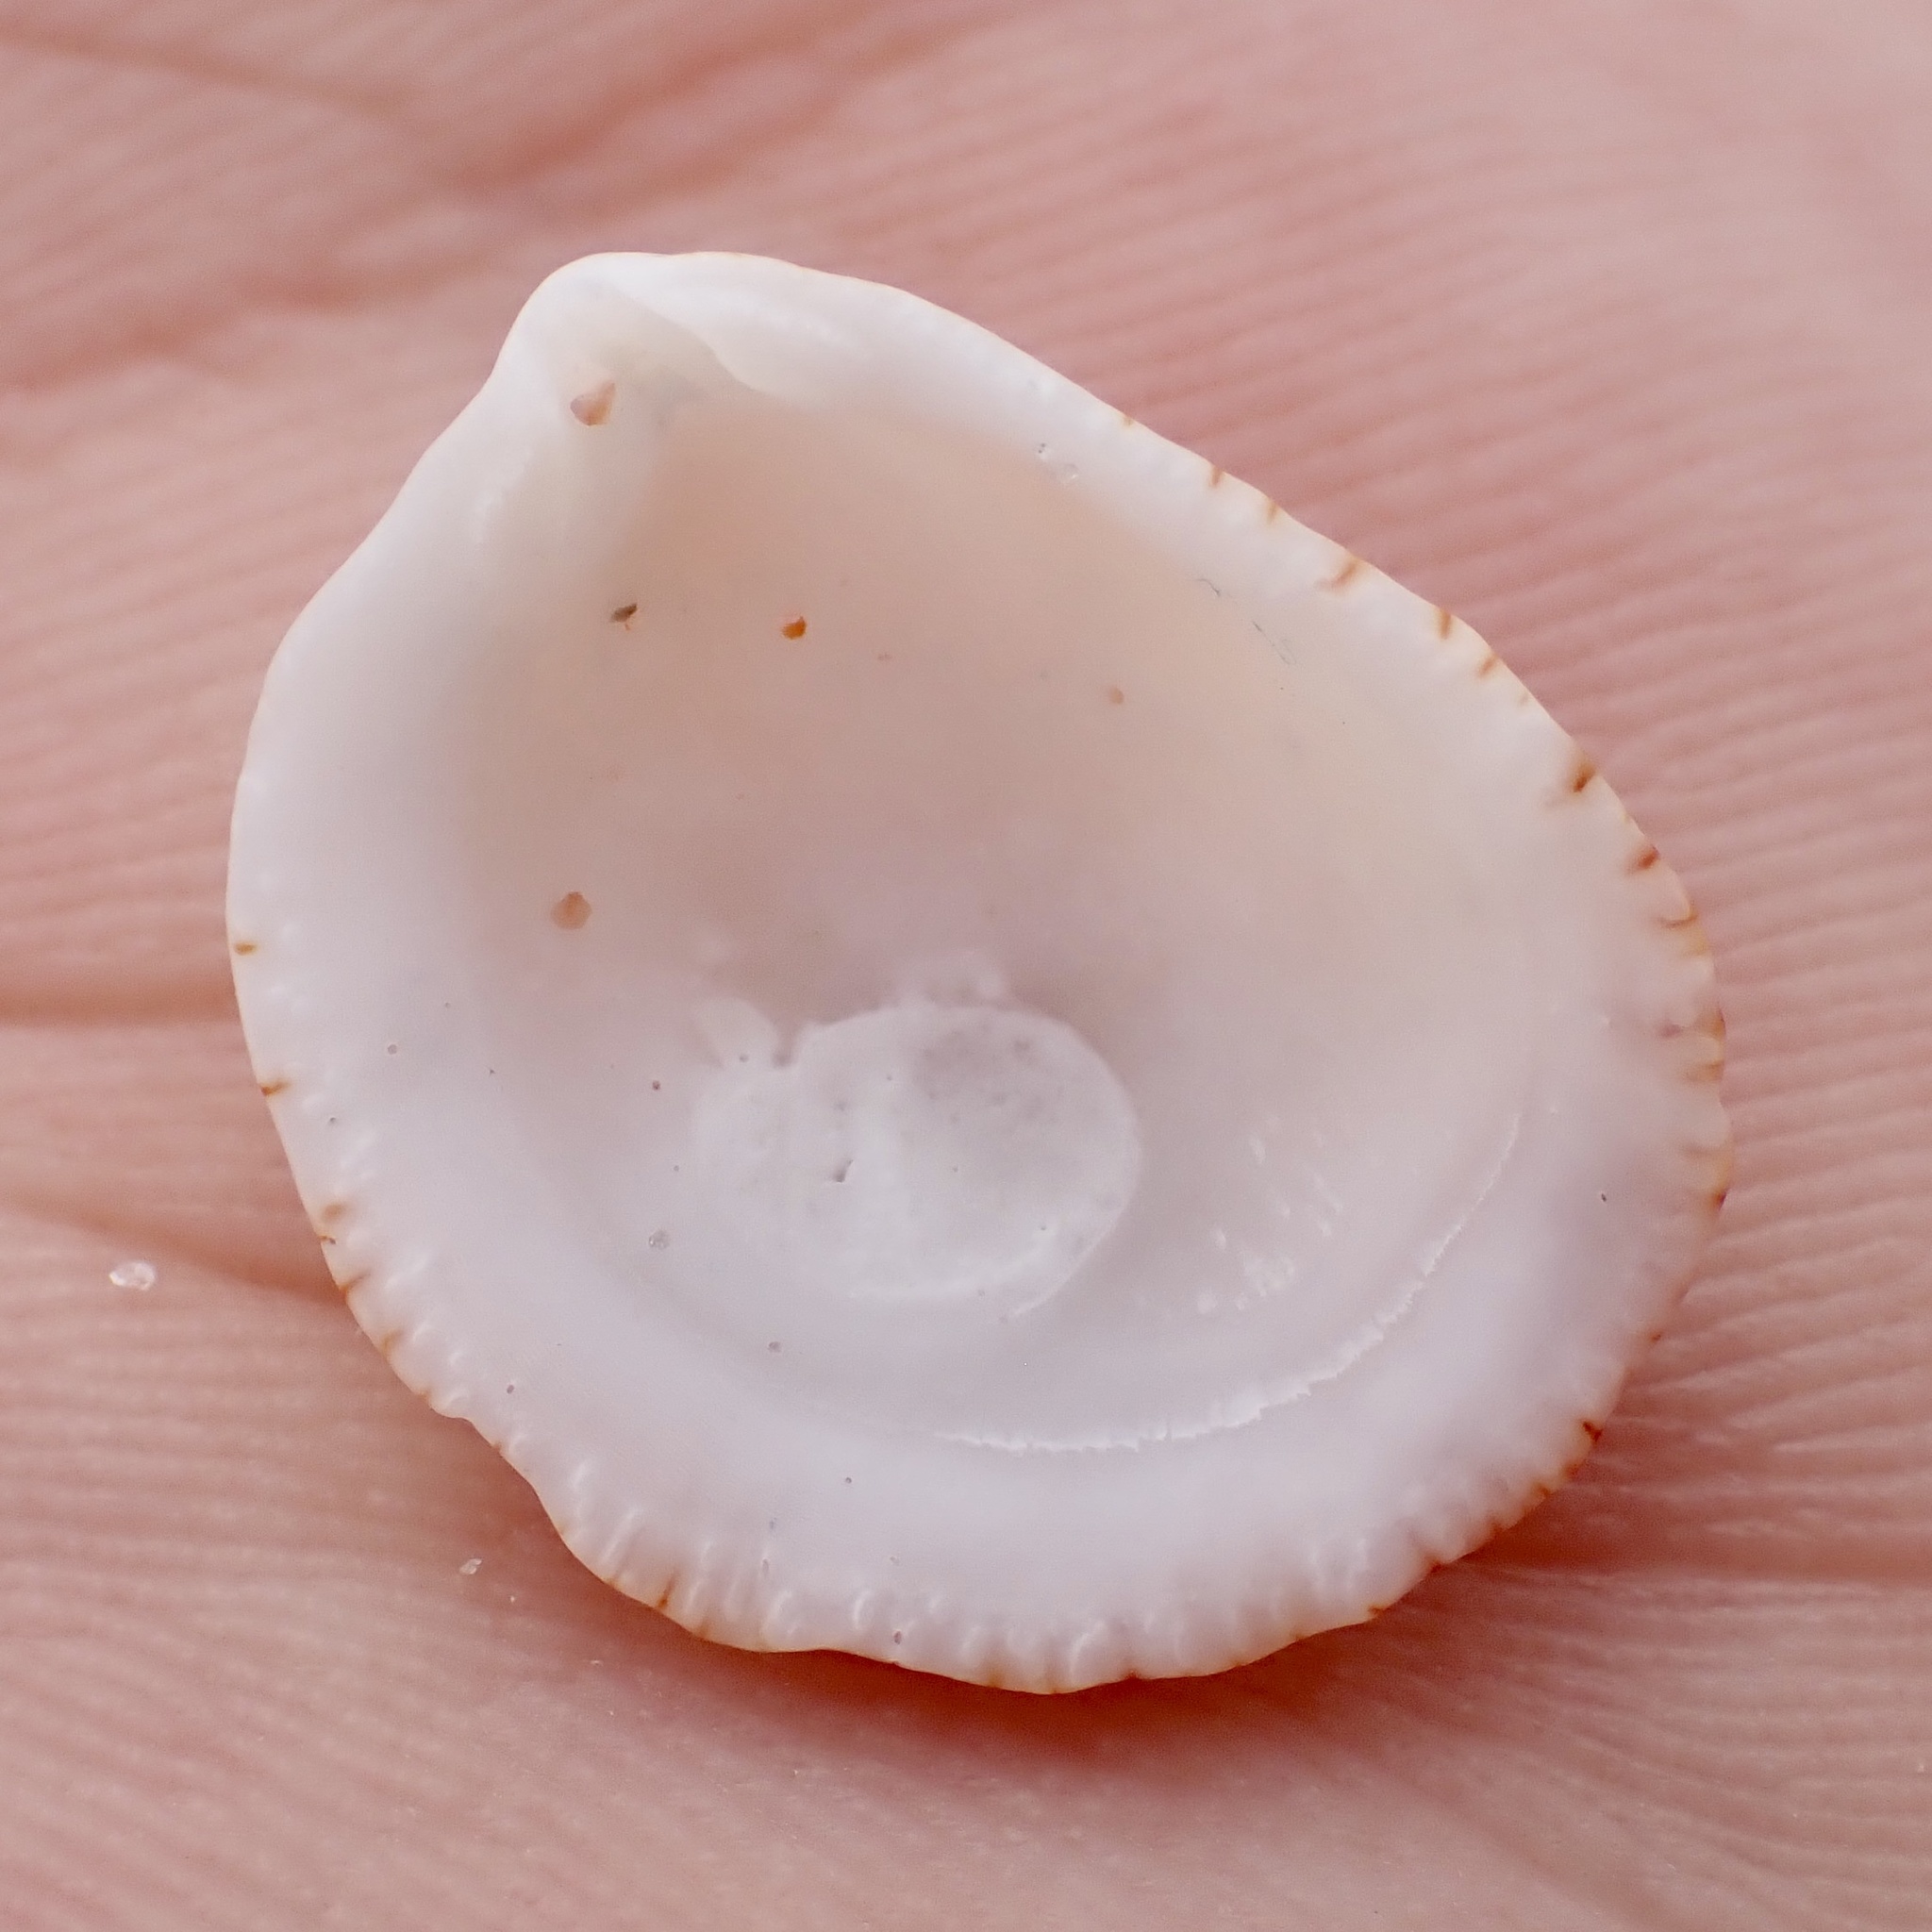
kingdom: Animalia
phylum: Mollusca
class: Bivalvia
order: Pectinida
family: Plicatulidae
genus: Plicatula
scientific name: Plicatula gibbosa
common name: Atlantic kitten's paw
